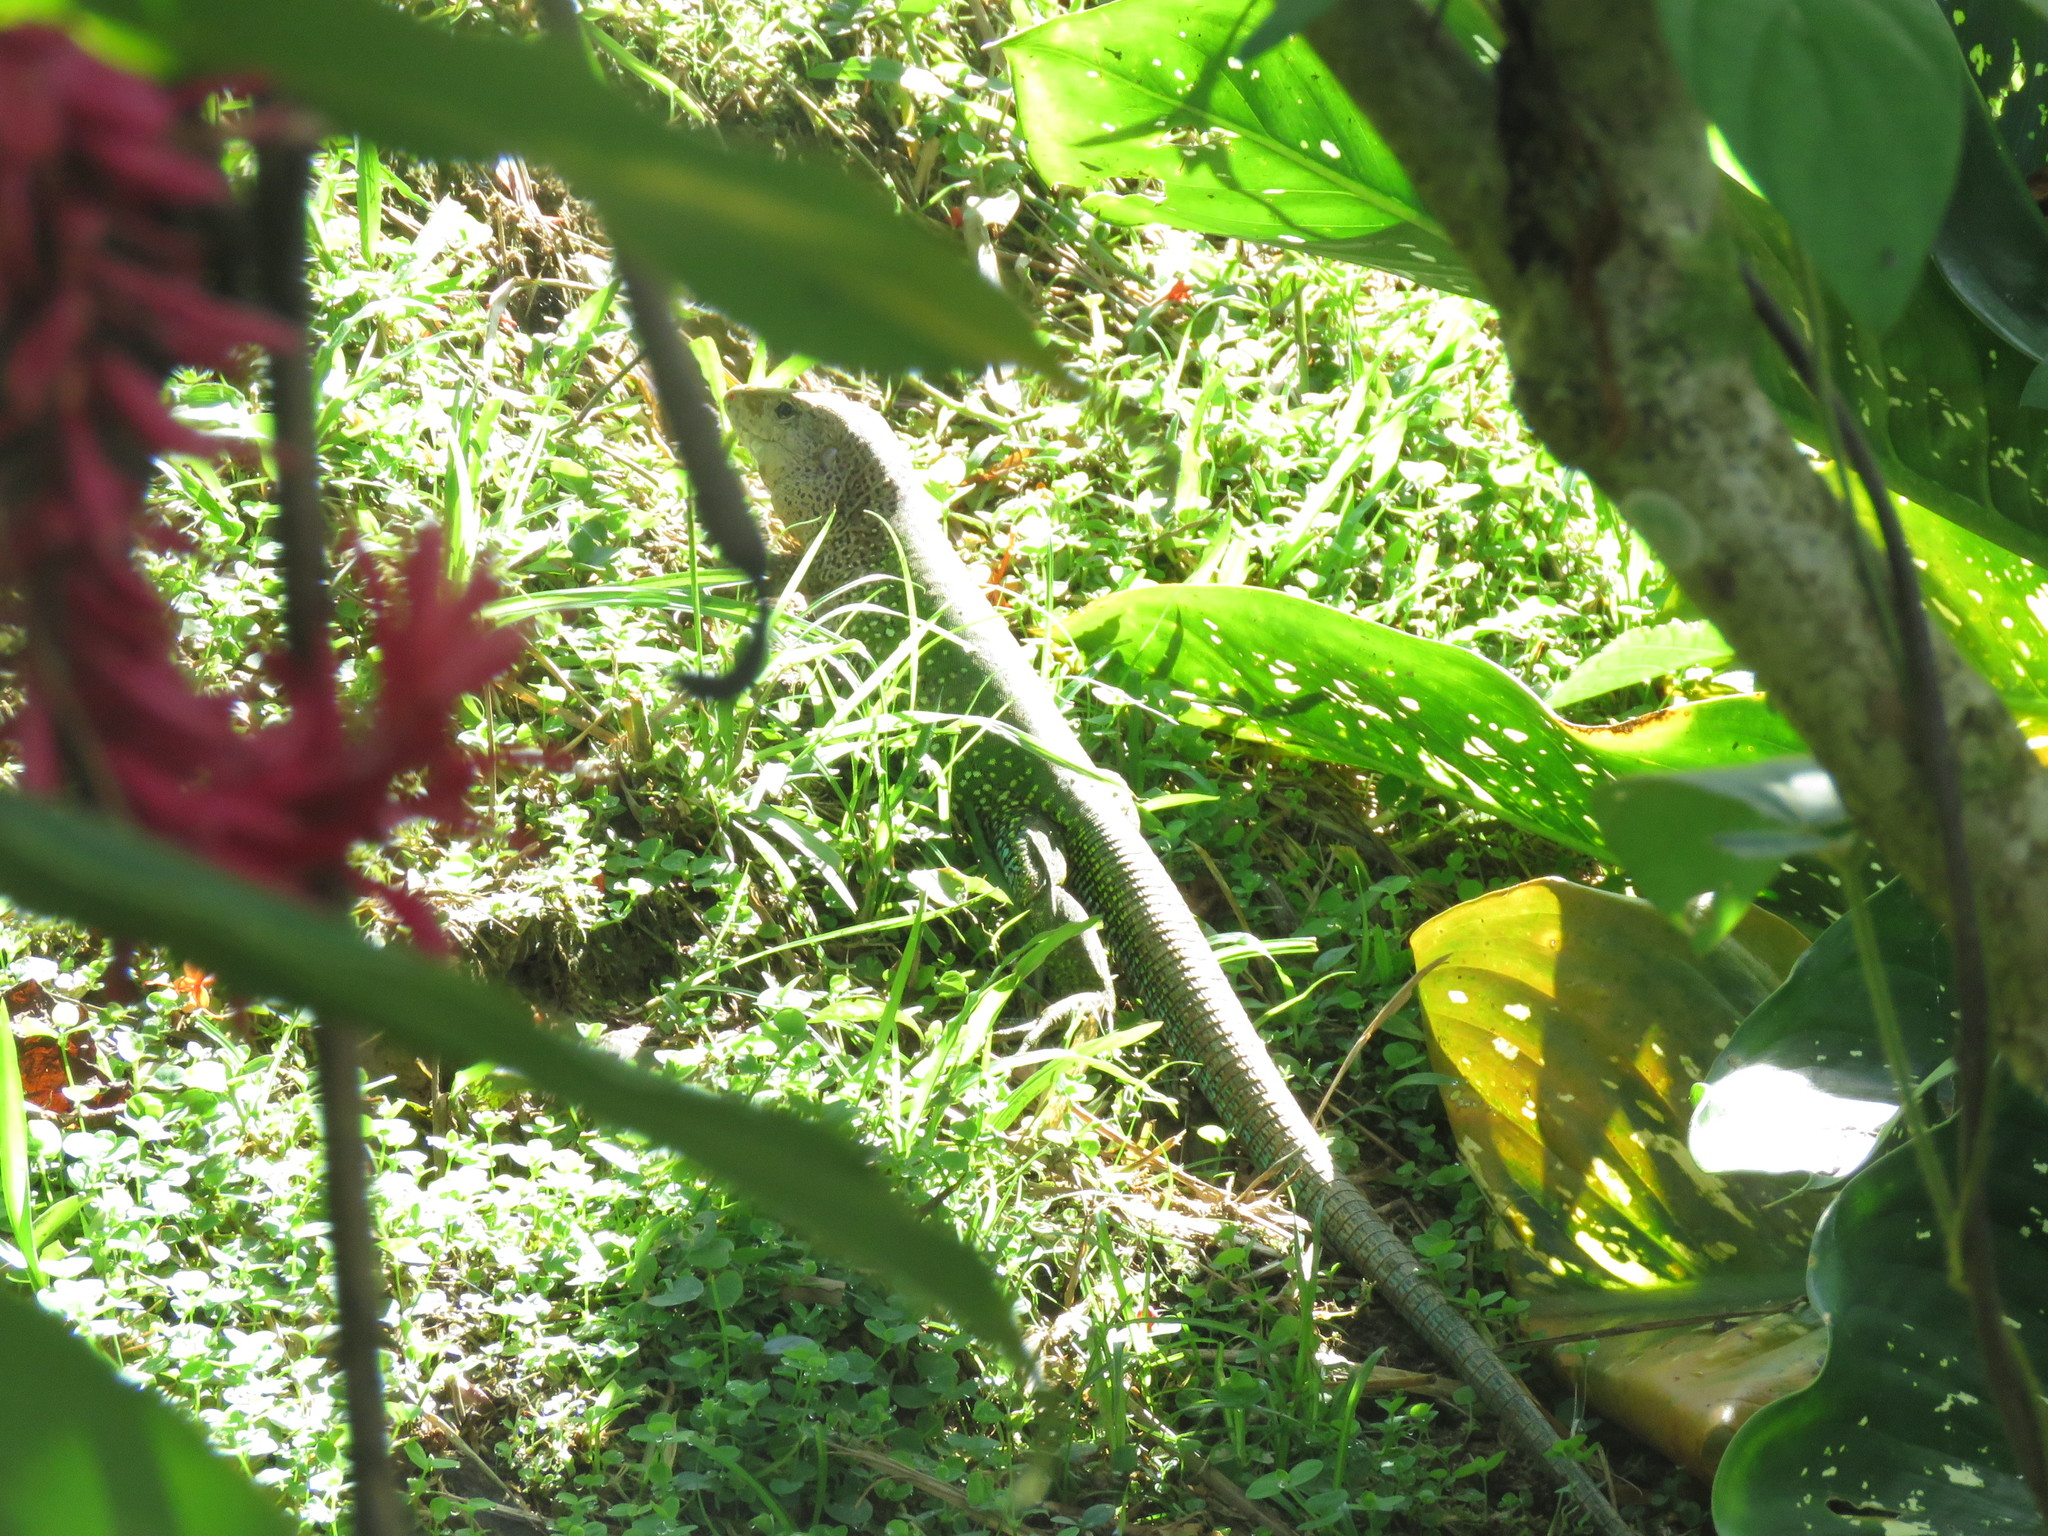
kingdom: Animalia
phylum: Chordata
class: Squamata
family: Teiidae
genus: Ameiva
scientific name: Ameiva ameiva
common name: Giant ameiva
